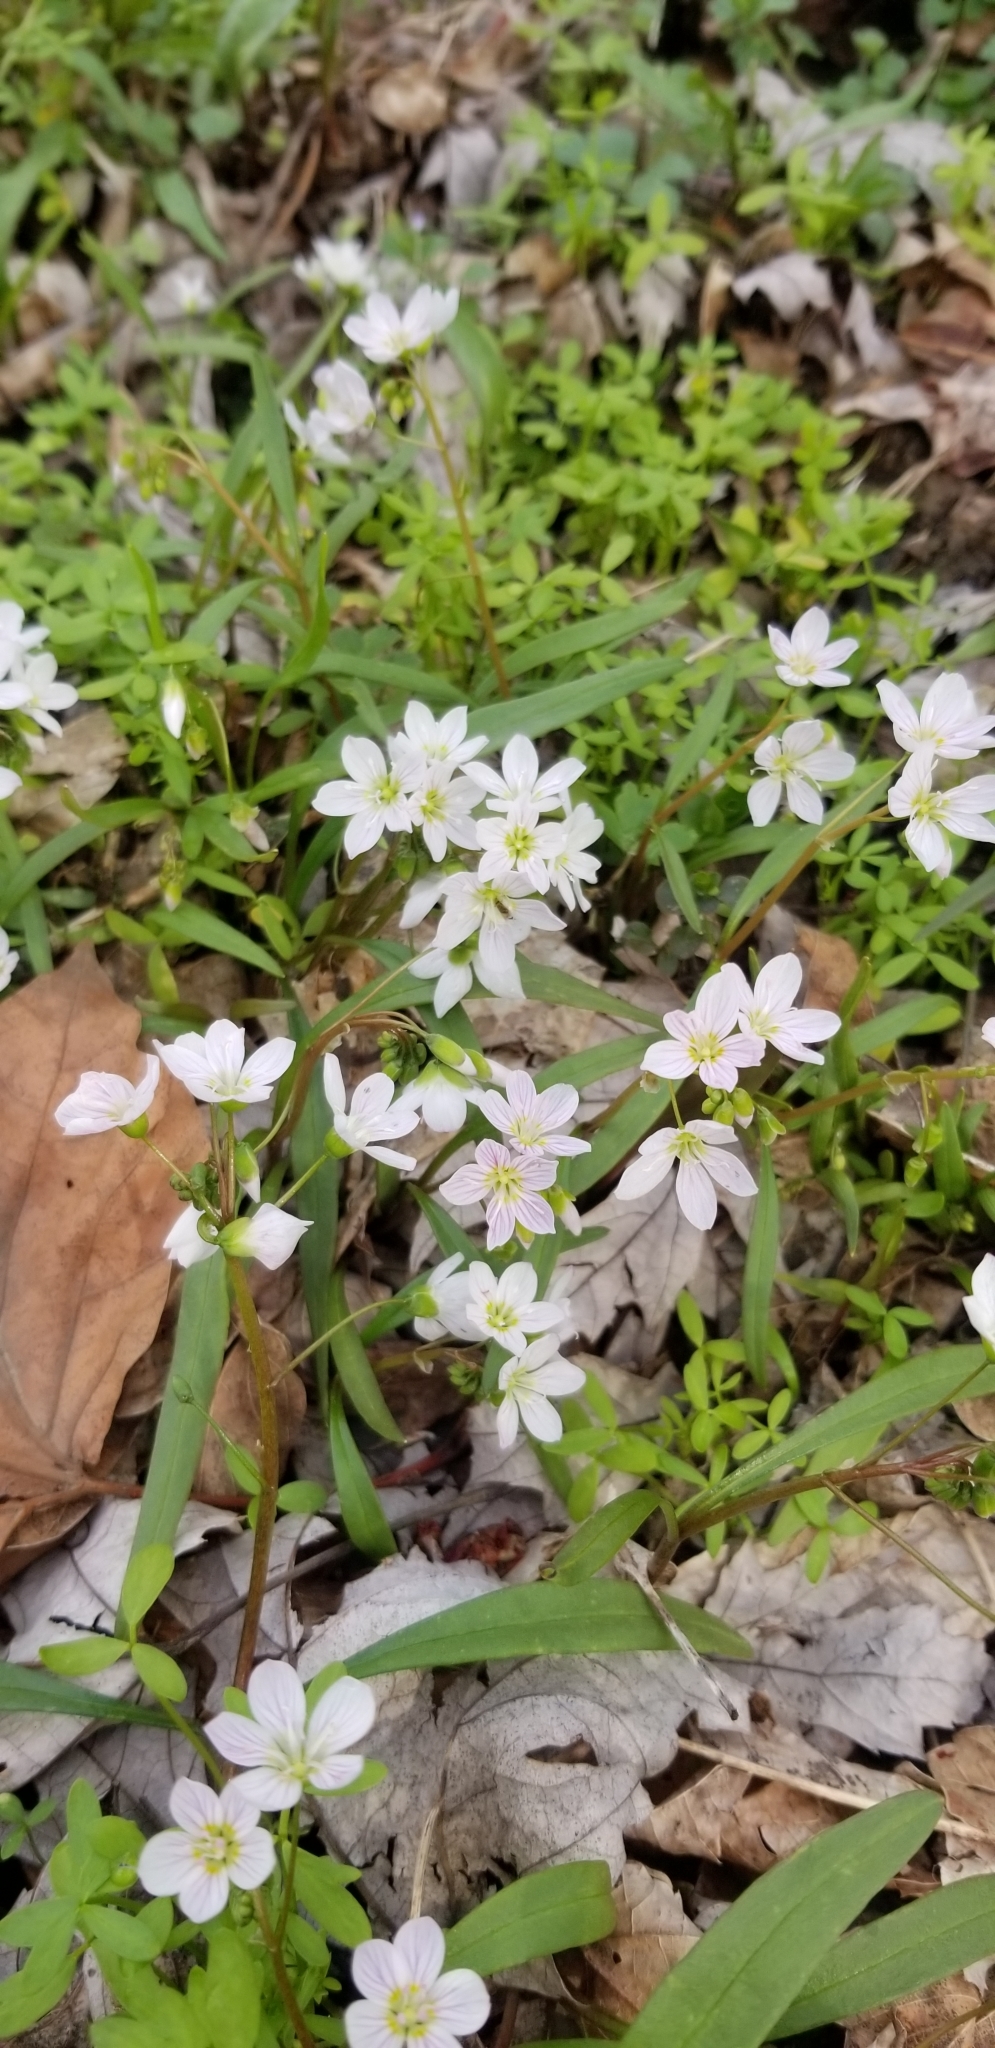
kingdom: Plantae
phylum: Tracheophyta
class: Magnoliopsida
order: Caryophyllales
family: Montiaceae
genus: Claytonia
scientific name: Claytonia virginica
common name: Virginia springbeauty
